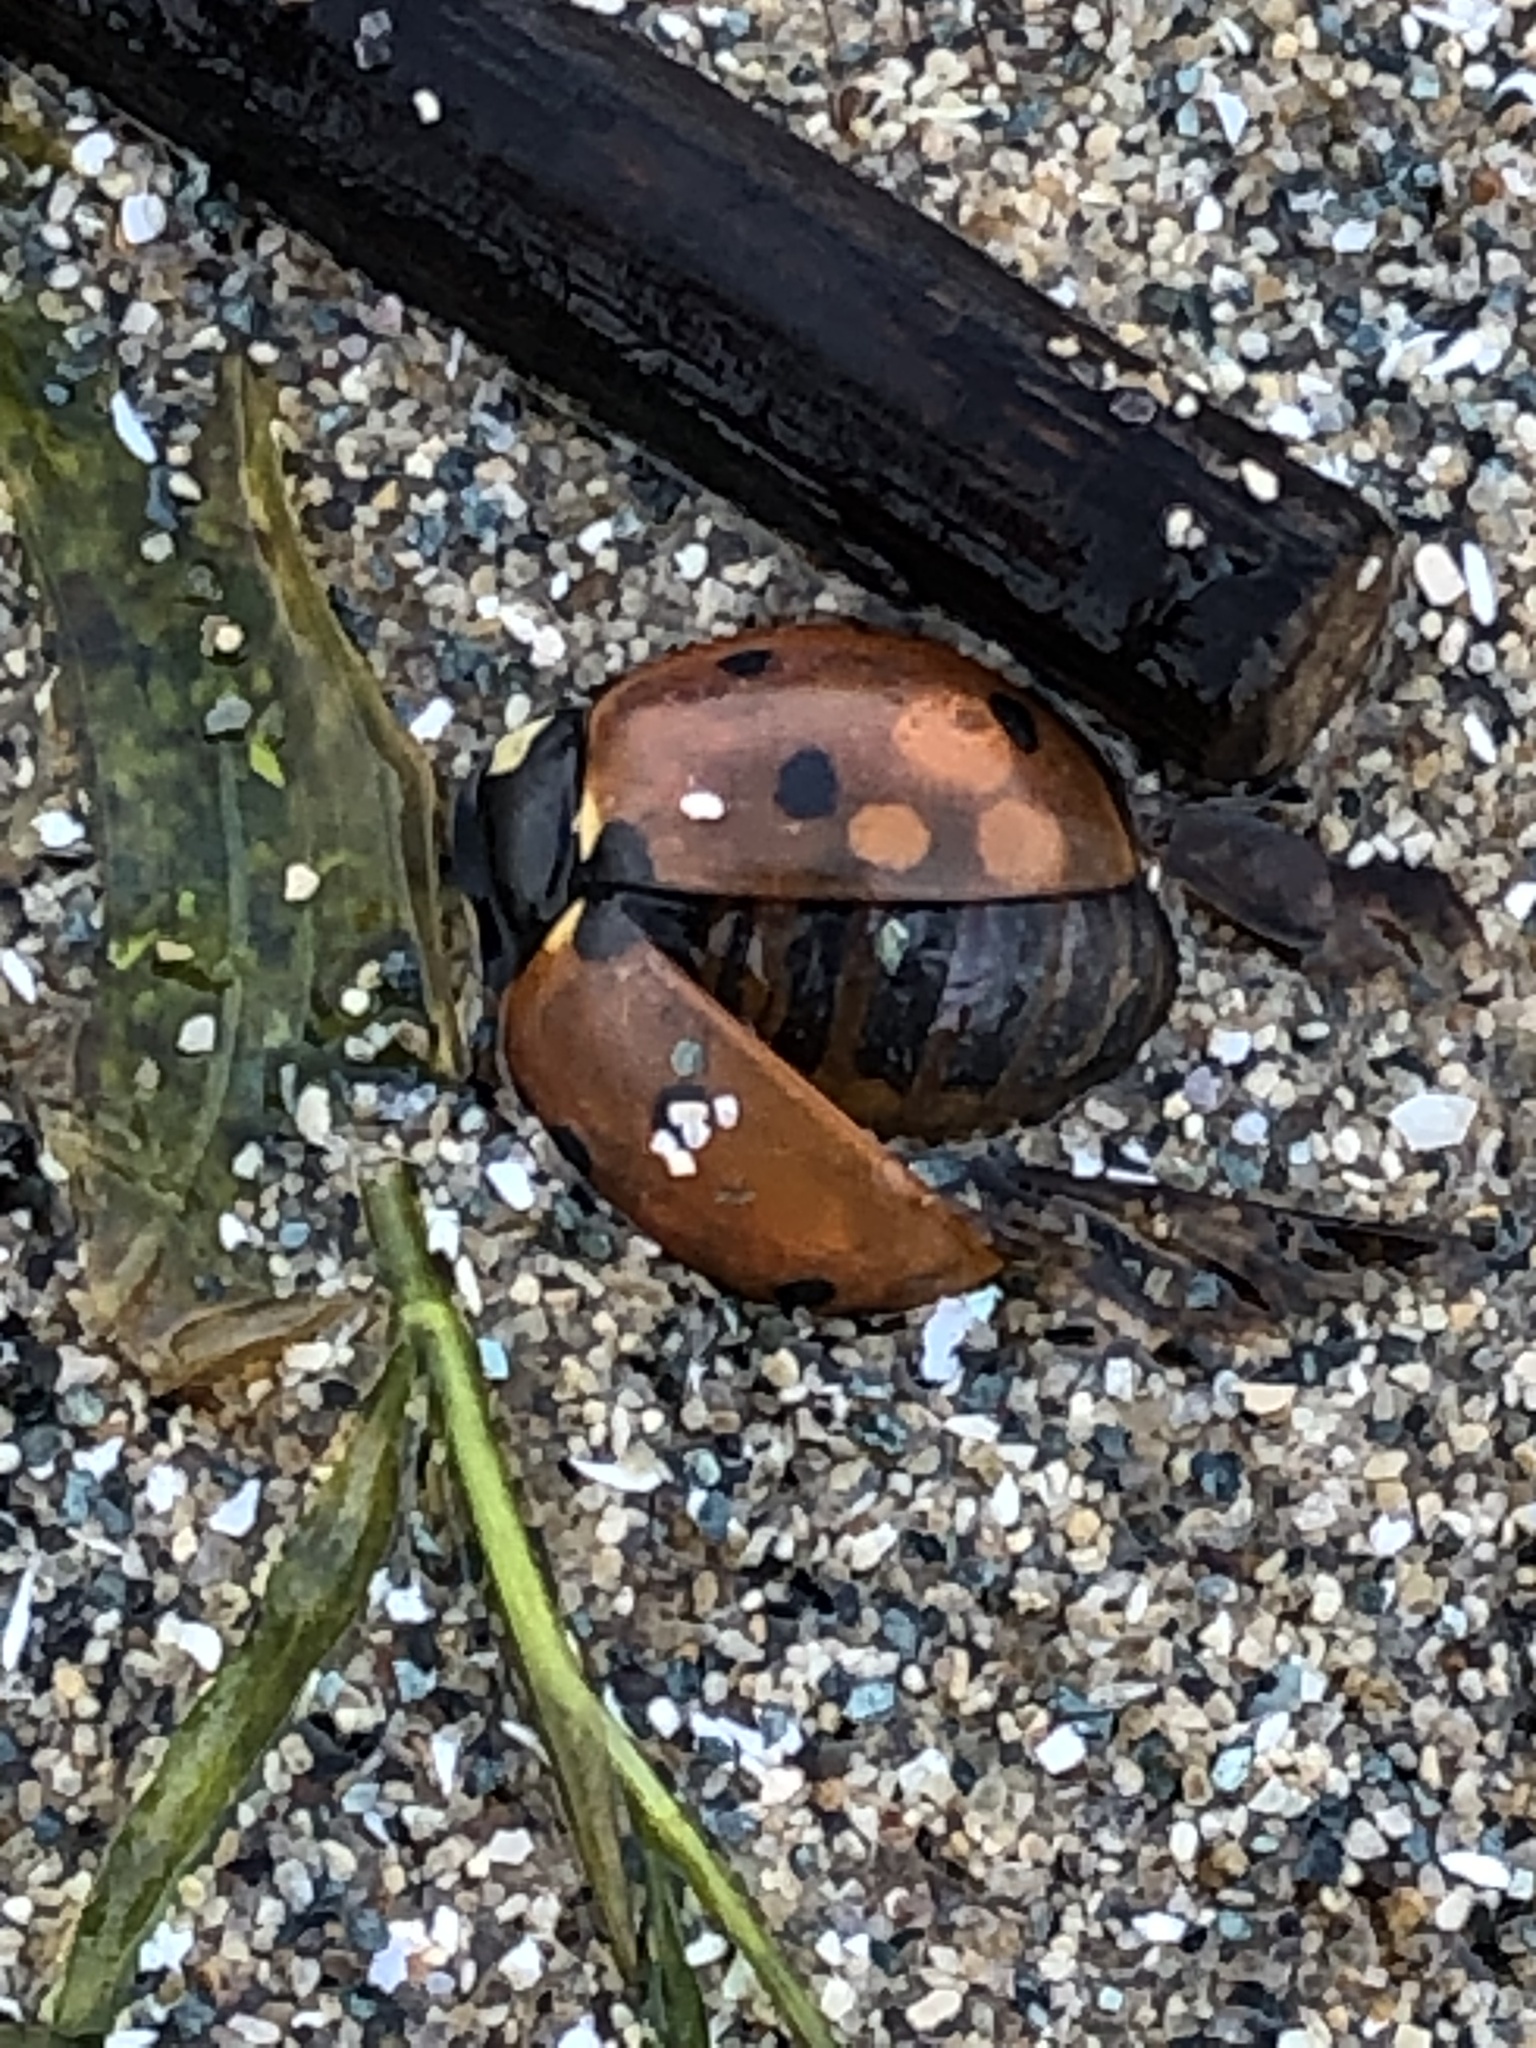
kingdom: Animalia
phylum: Arthropoda
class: Insecta
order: Coleoptera
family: Coccinellidae
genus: Coccinella
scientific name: Coccinella septempunctata
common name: Sevenspotted lady beetle
